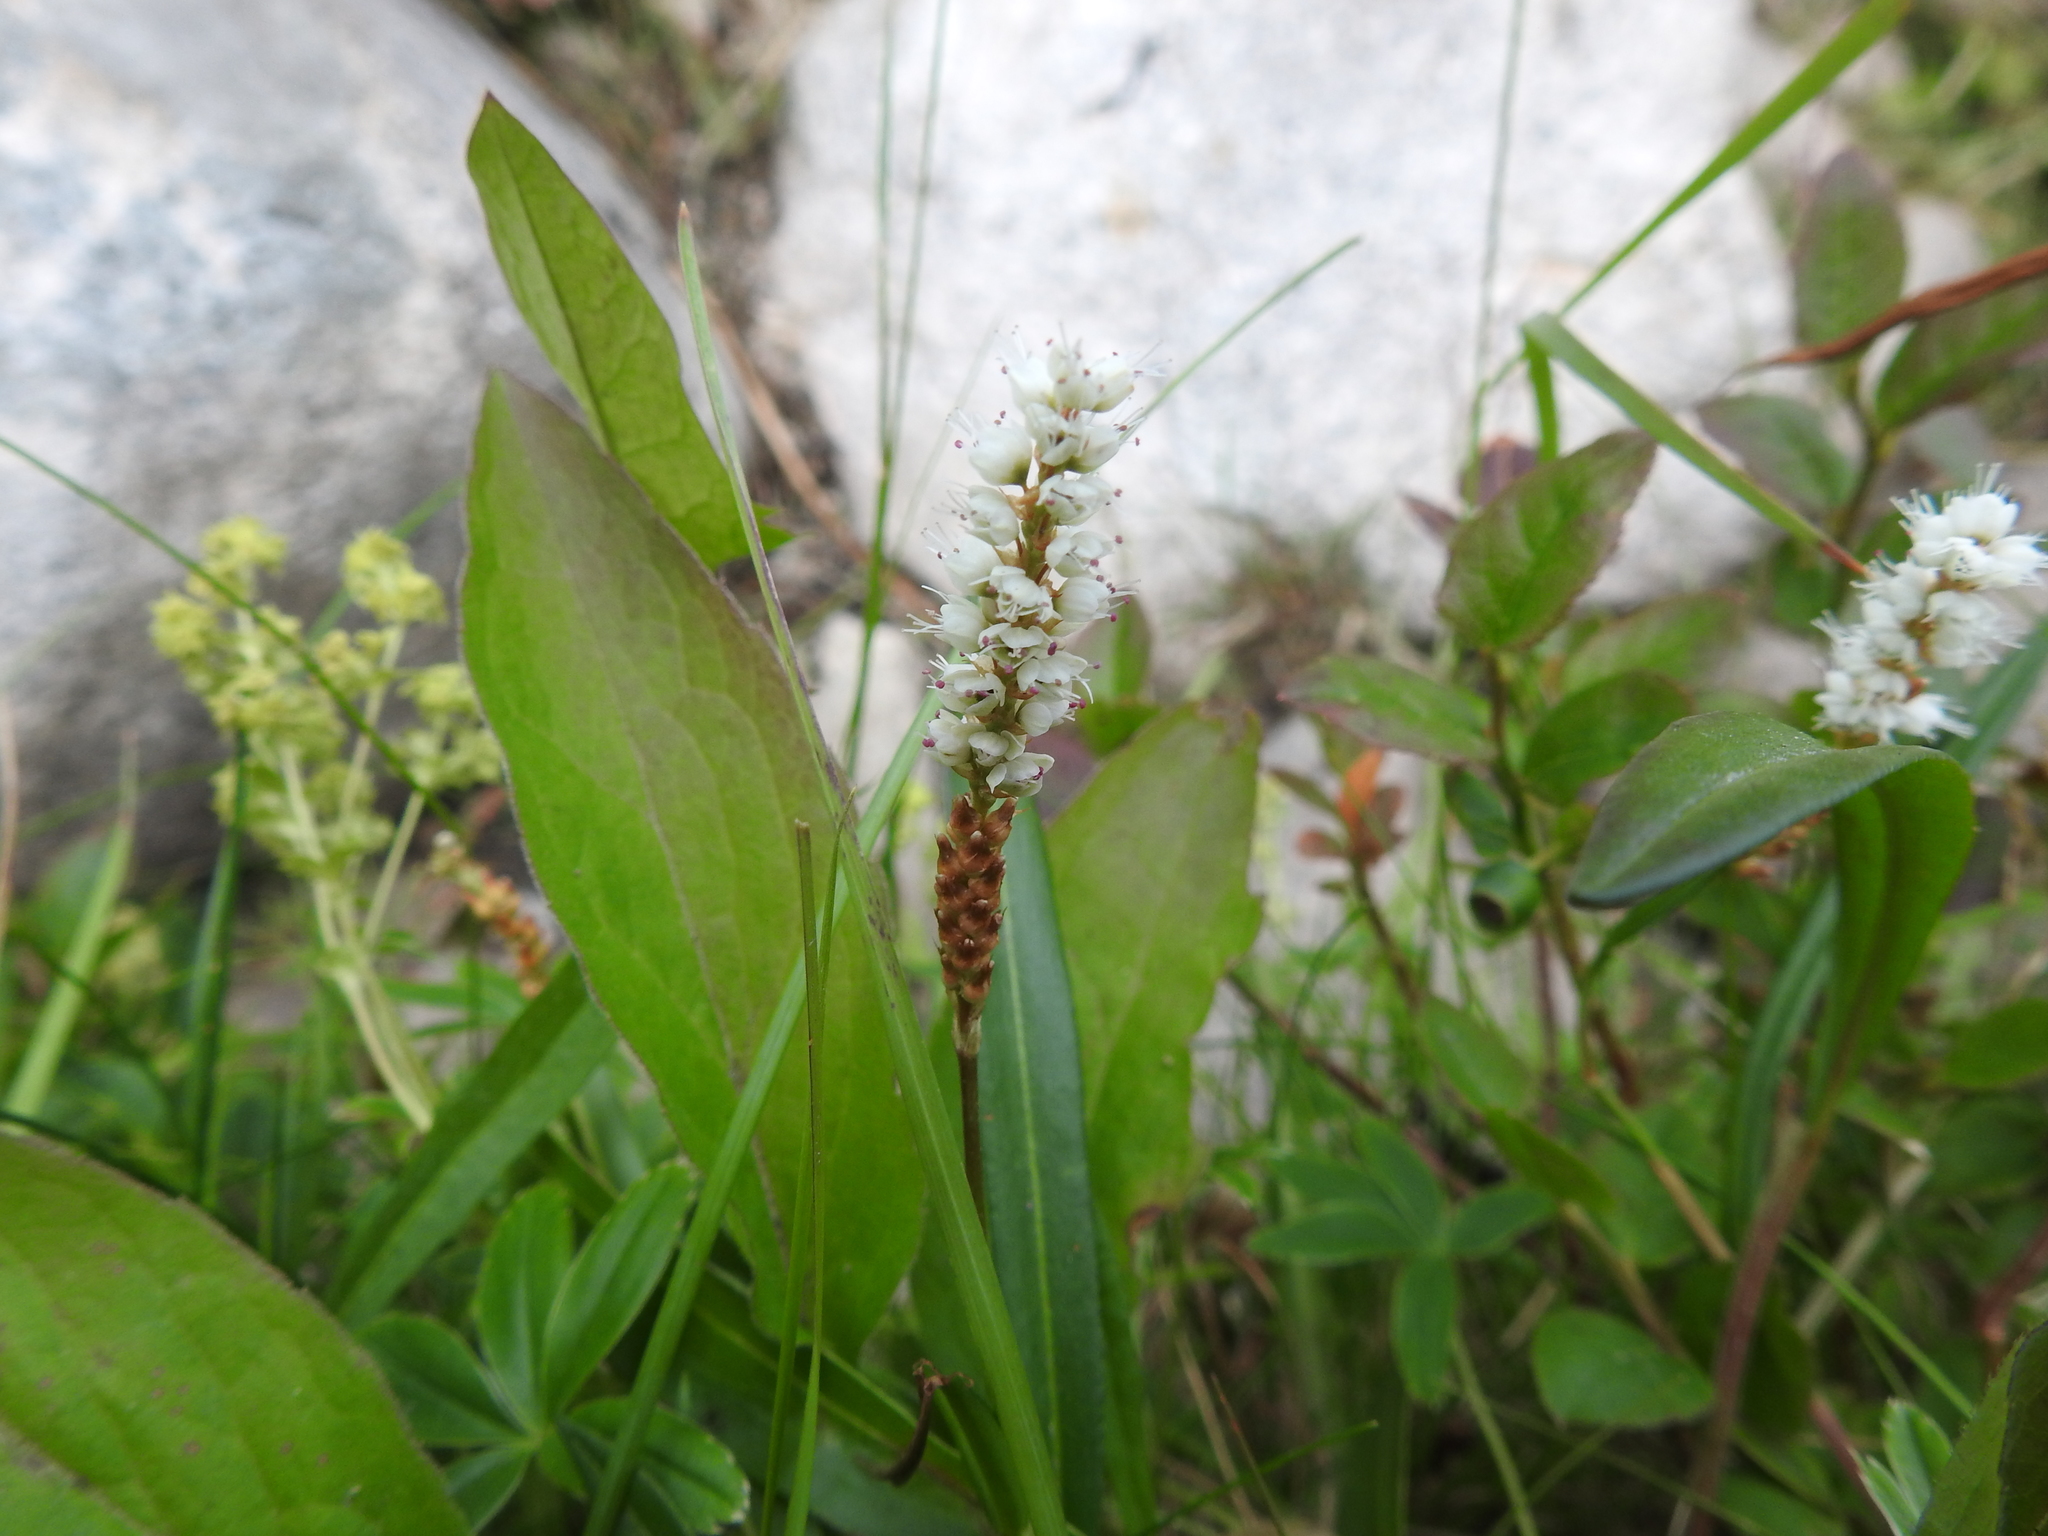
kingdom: Plantae
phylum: Tracheophyta
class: Magnoliopsida
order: Caryophyllales
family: Polygonaceae
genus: Bistorta
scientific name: Bistorta vivipara
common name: Alpine bistort
